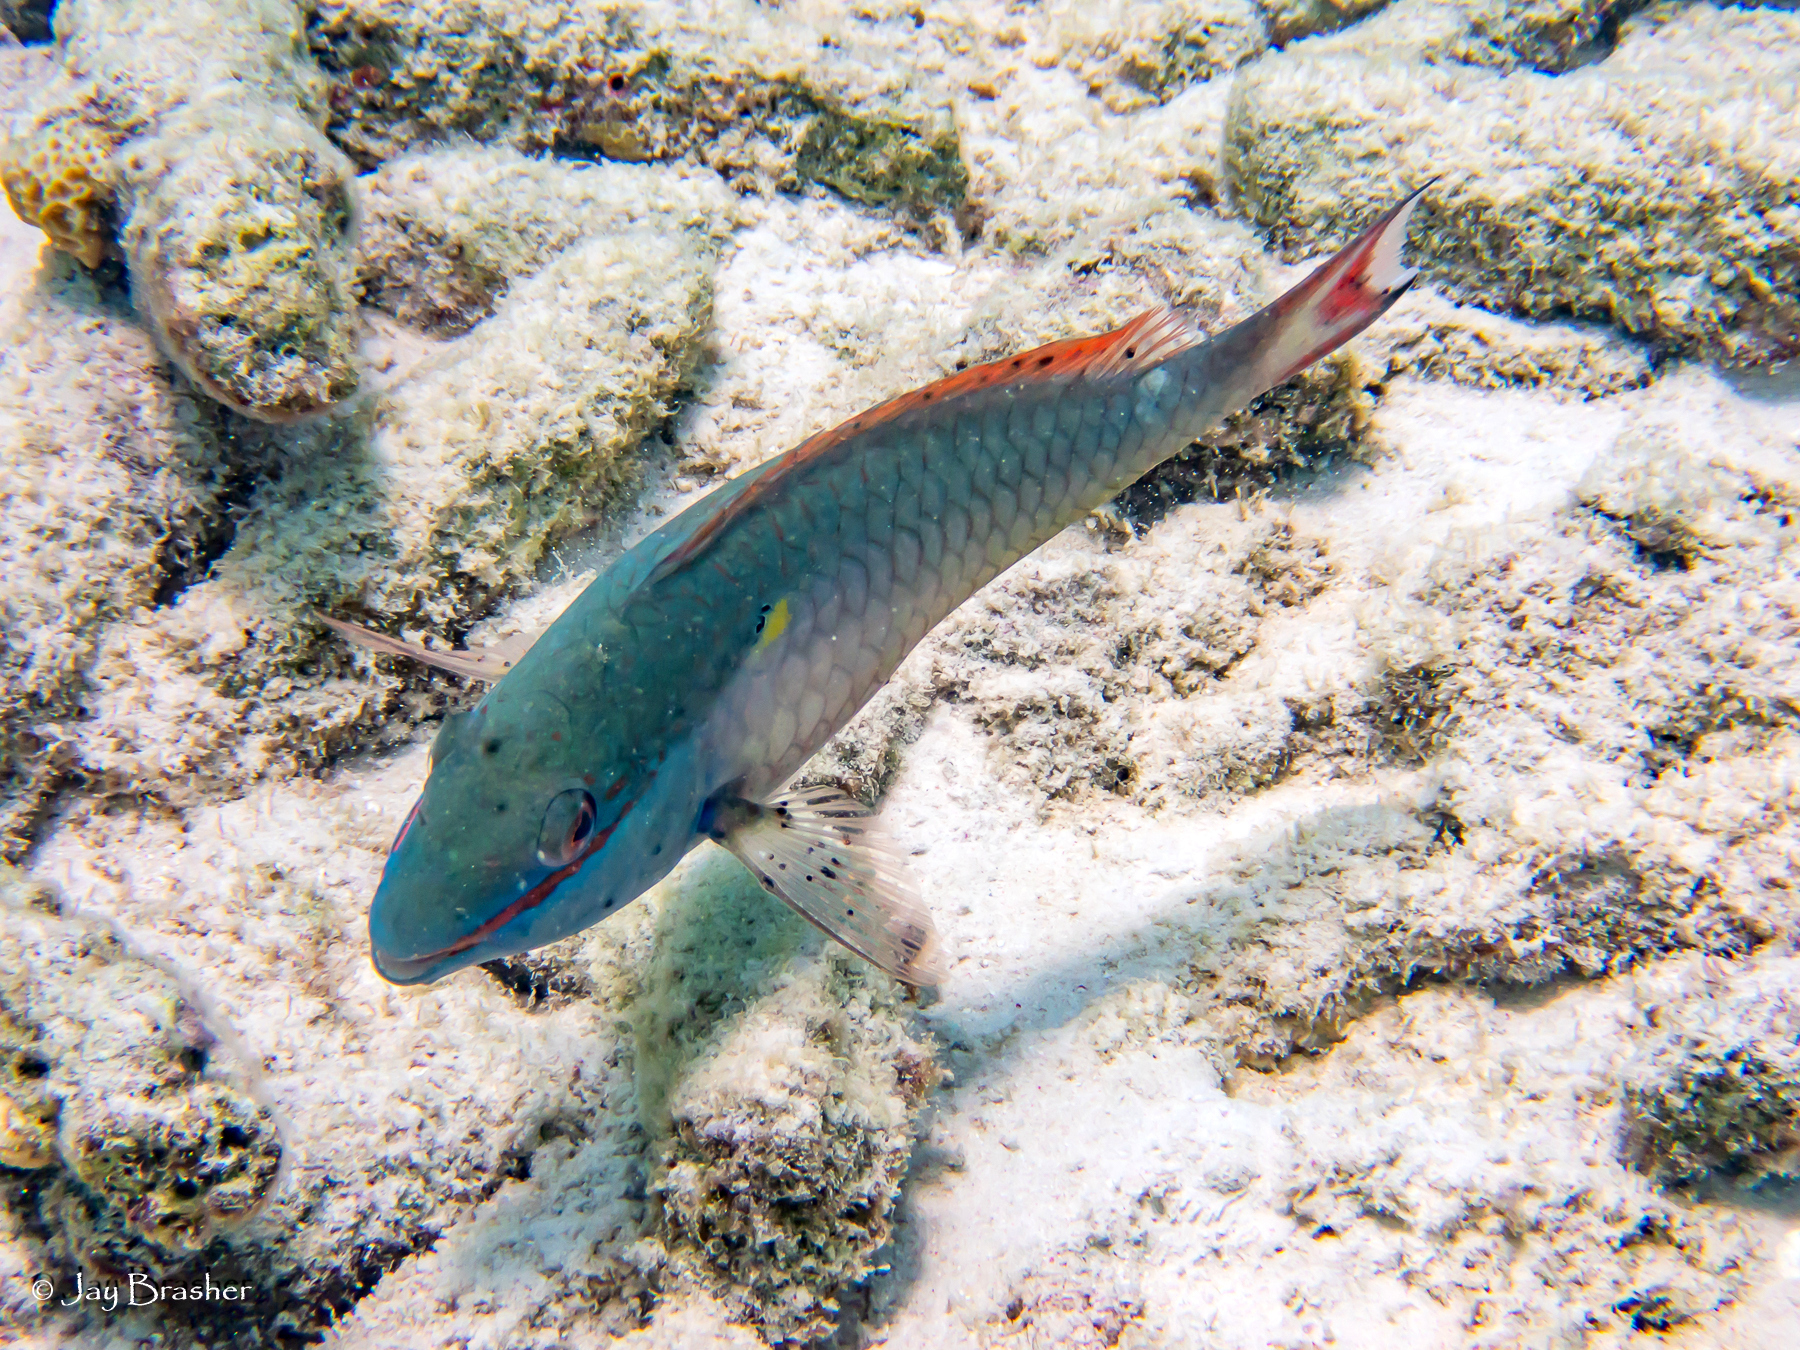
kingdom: Animalia
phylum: Chordata
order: Perciformes
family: Scaridae
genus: Sparisoma
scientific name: Sparisoma aurofrenatum
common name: Redband parrotfish
